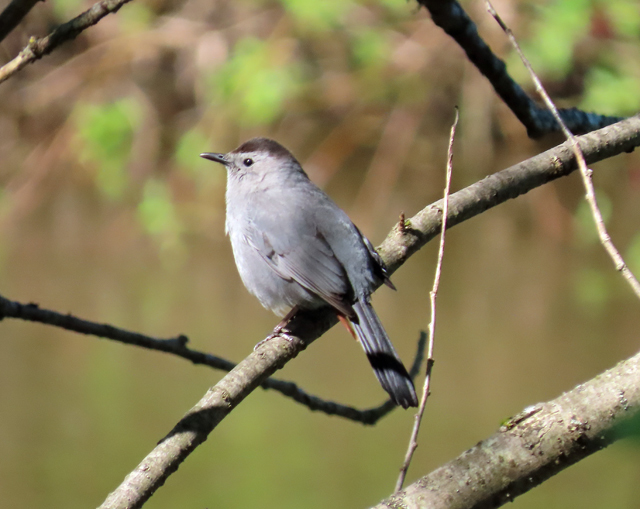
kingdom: Animalia
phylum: Chordata
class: Aves
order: Passeriformes
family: Mimidae
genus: Dumetella
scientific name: Dumetella carolinensis
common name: Gray catbird
